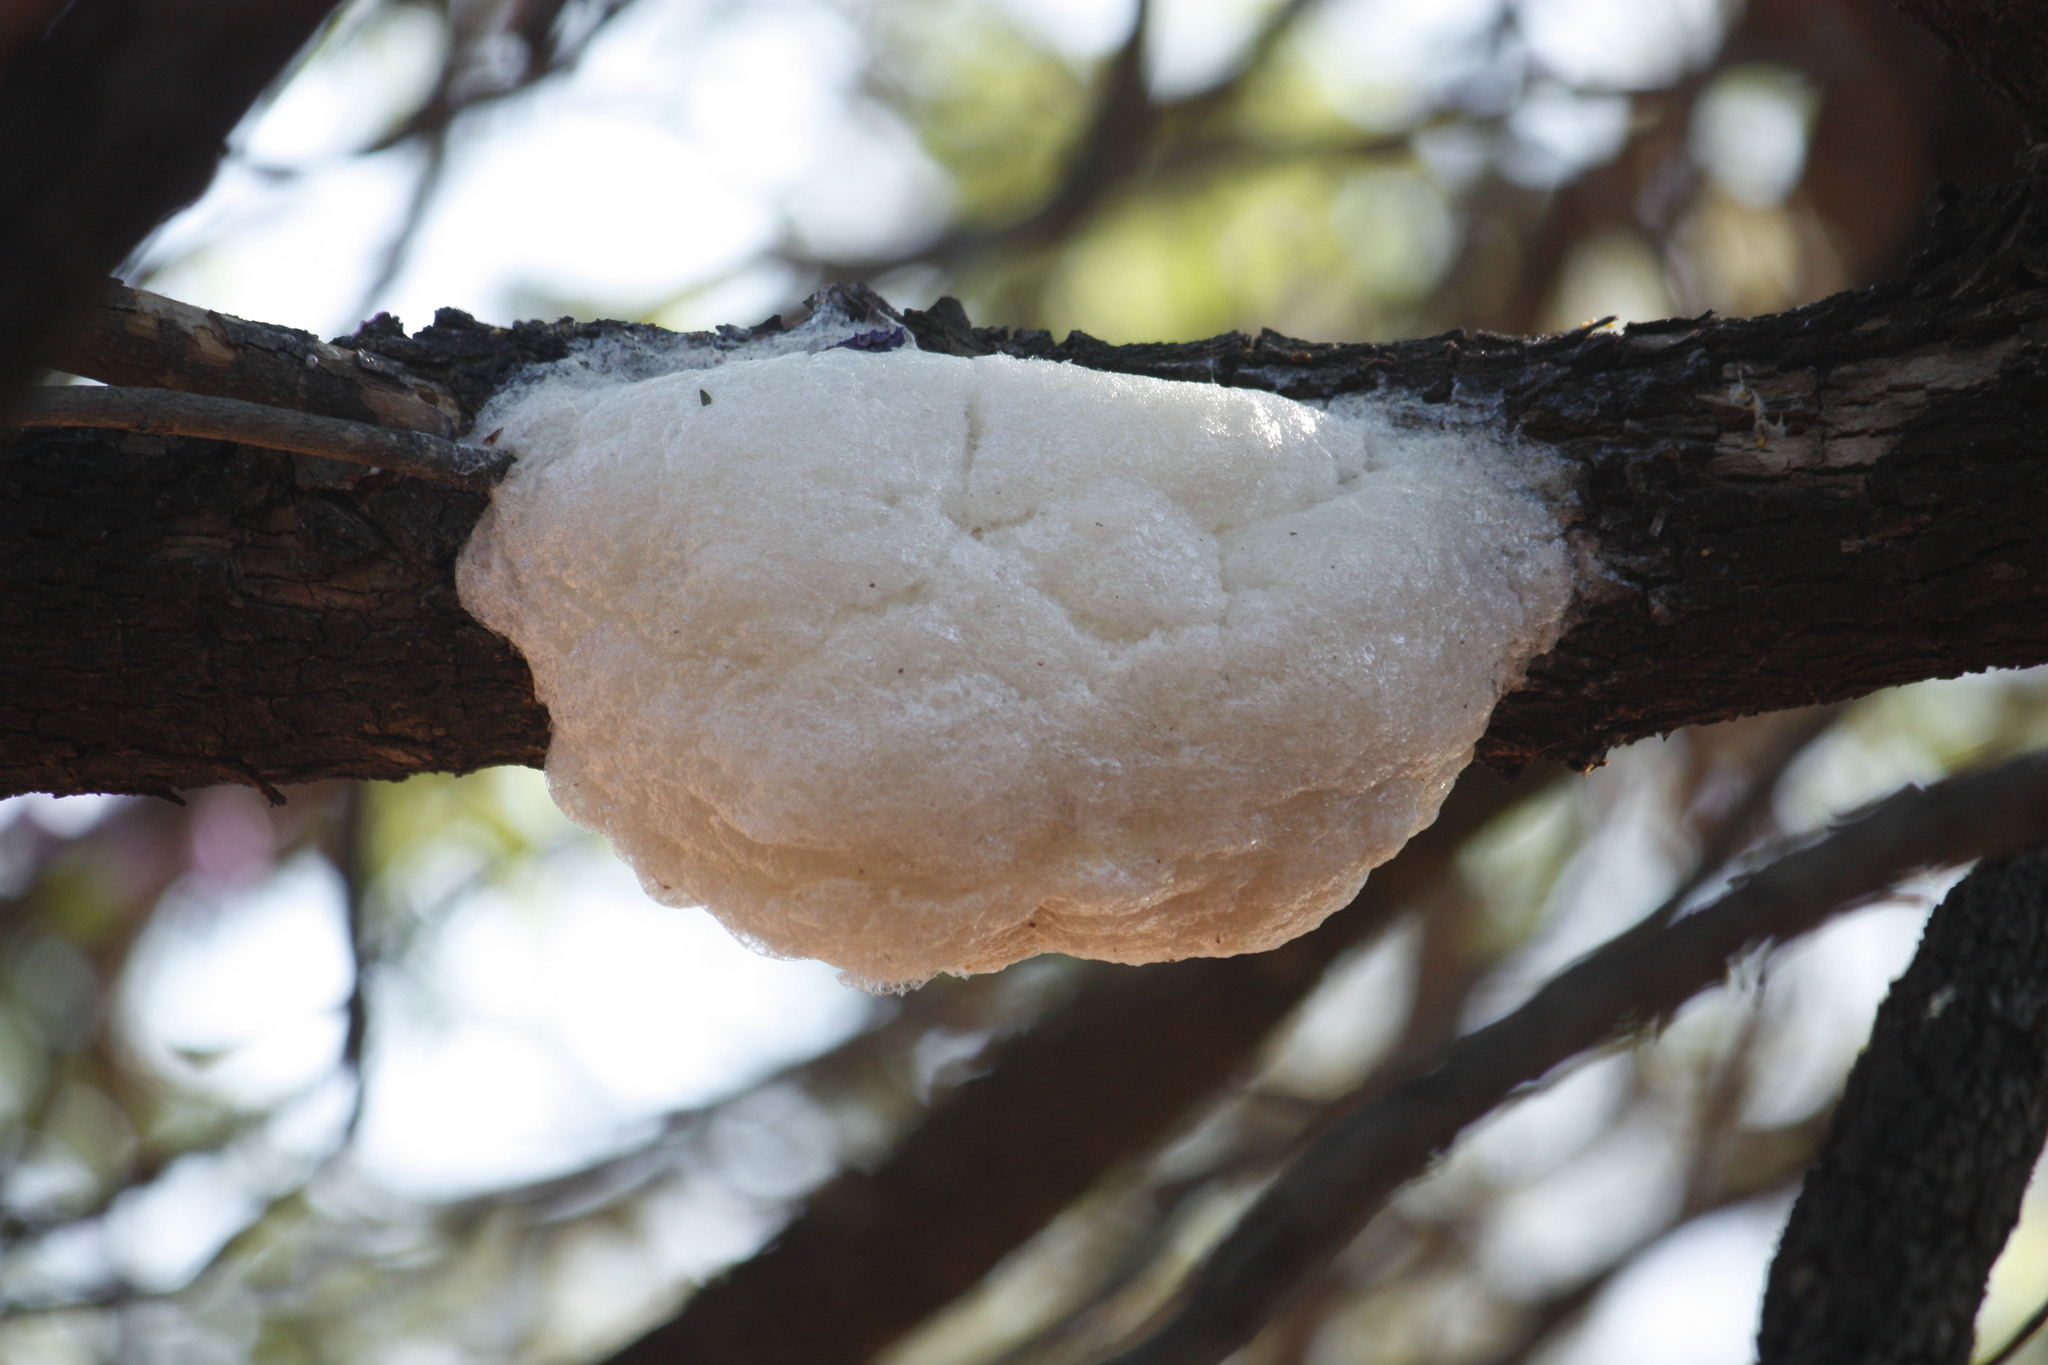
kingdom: Animalia
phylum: Chordata
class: Amphibia
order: Anura
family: Rhacophoridae
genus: Chiromantis
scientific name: Chiromantis xerampelina
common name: African gray treefrog
